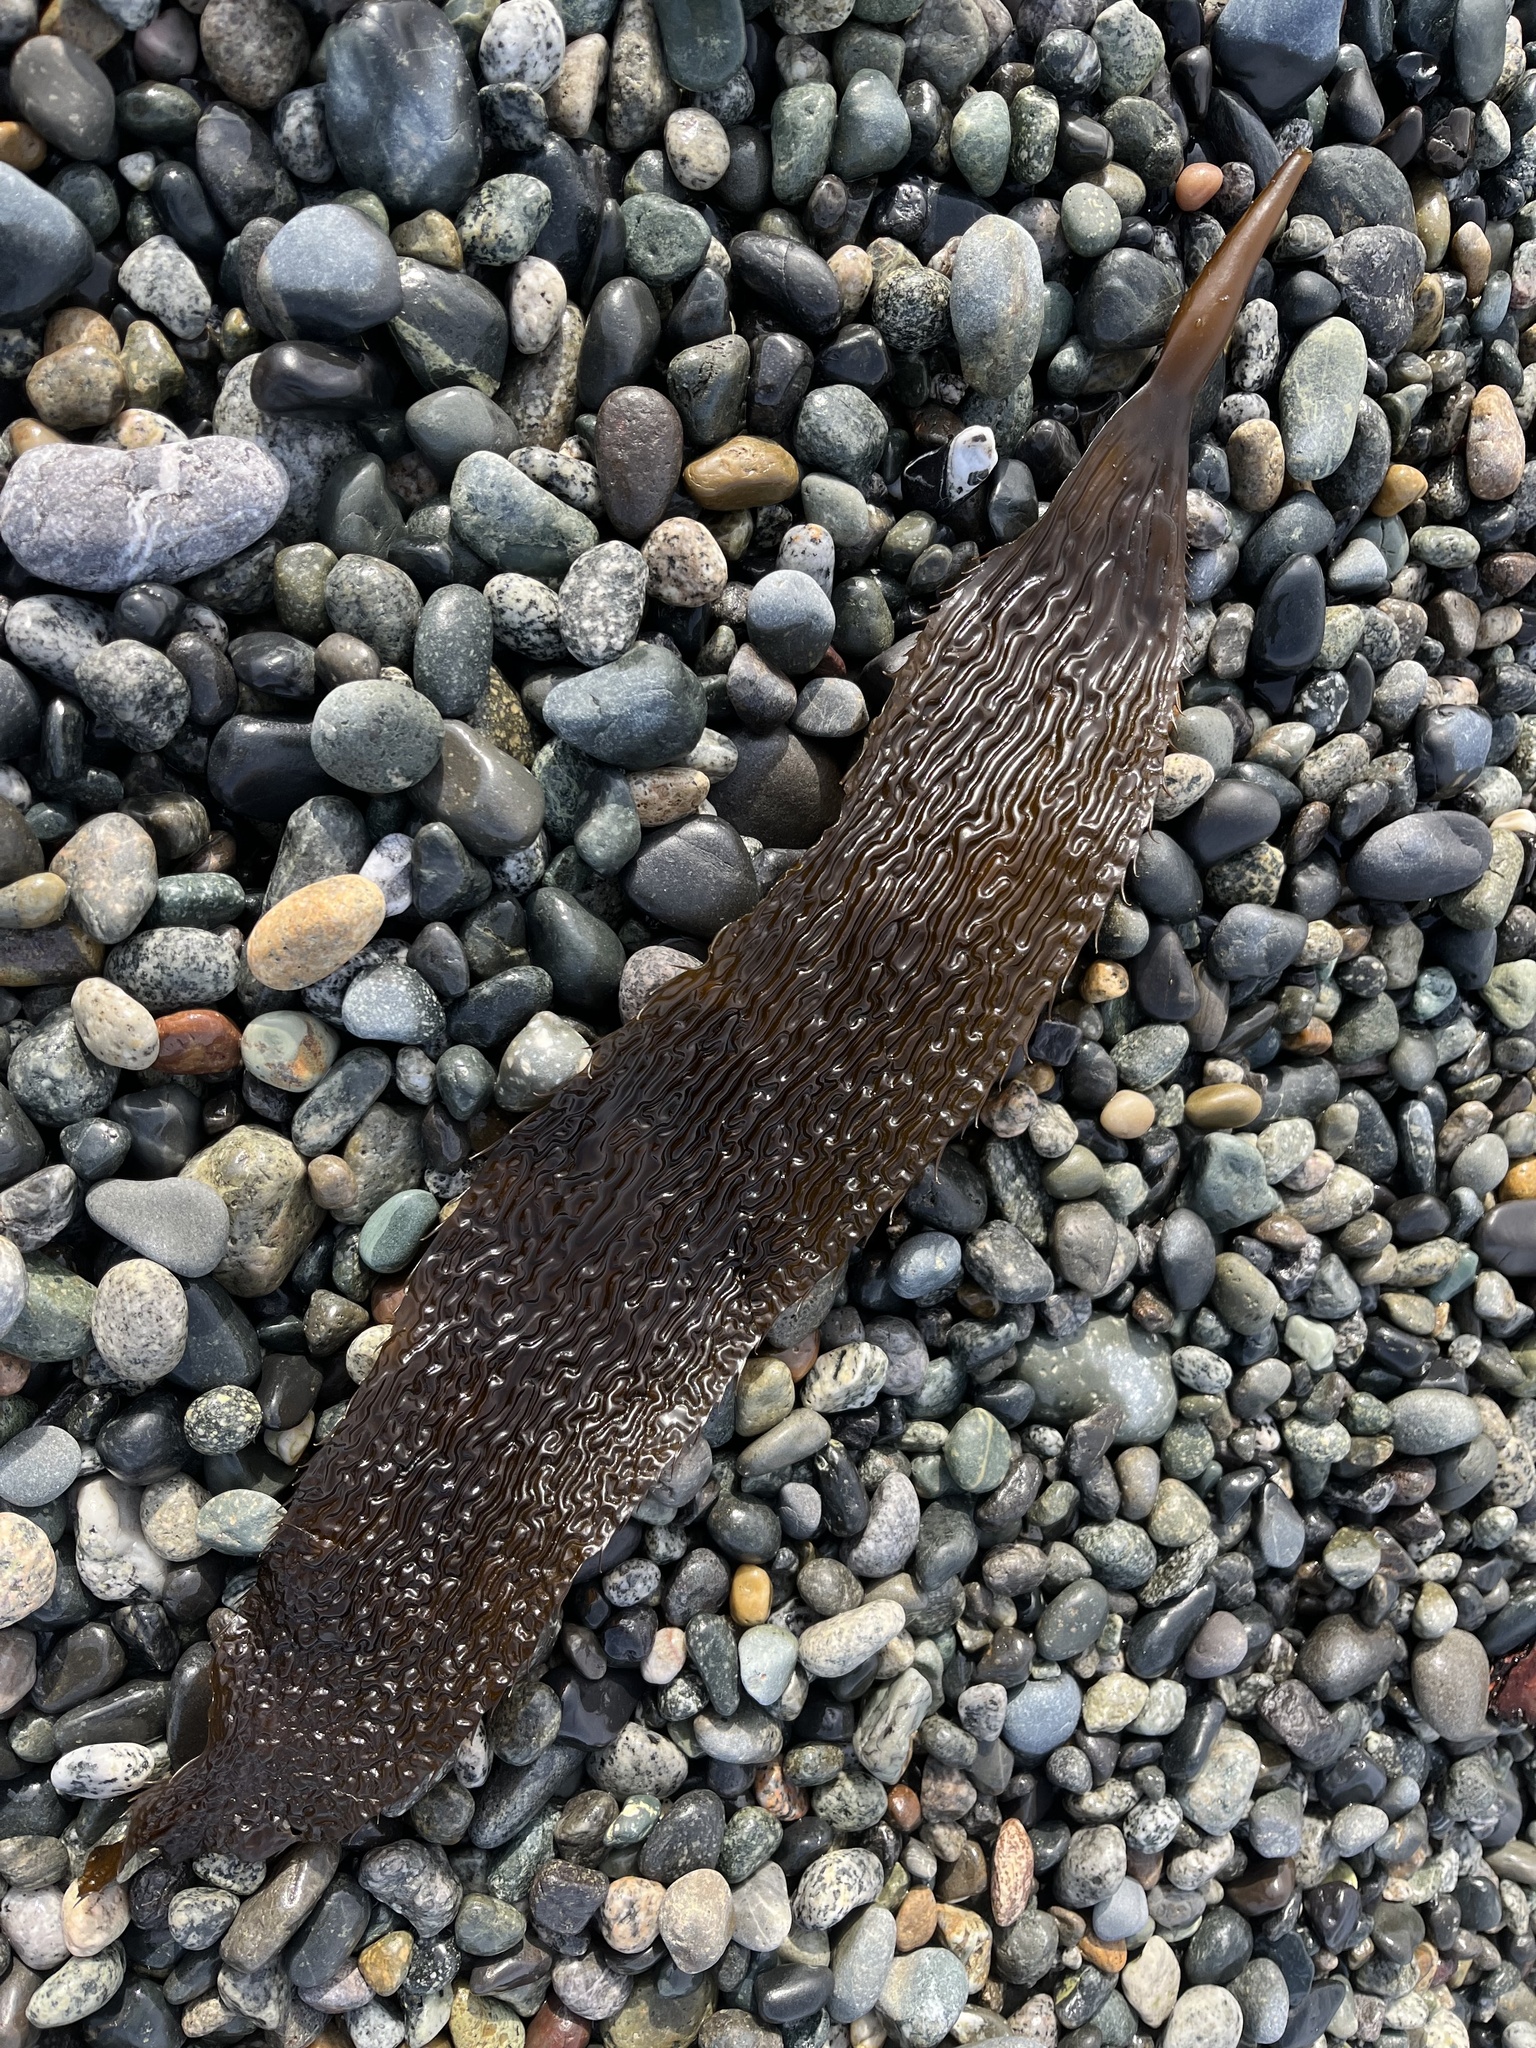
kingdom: Chromista
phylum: Ochrophyta
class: Phaeophyceae
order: Laminariales
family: Laminariaceae
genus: Macrocystis
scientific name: Macrocystis pyrifera
